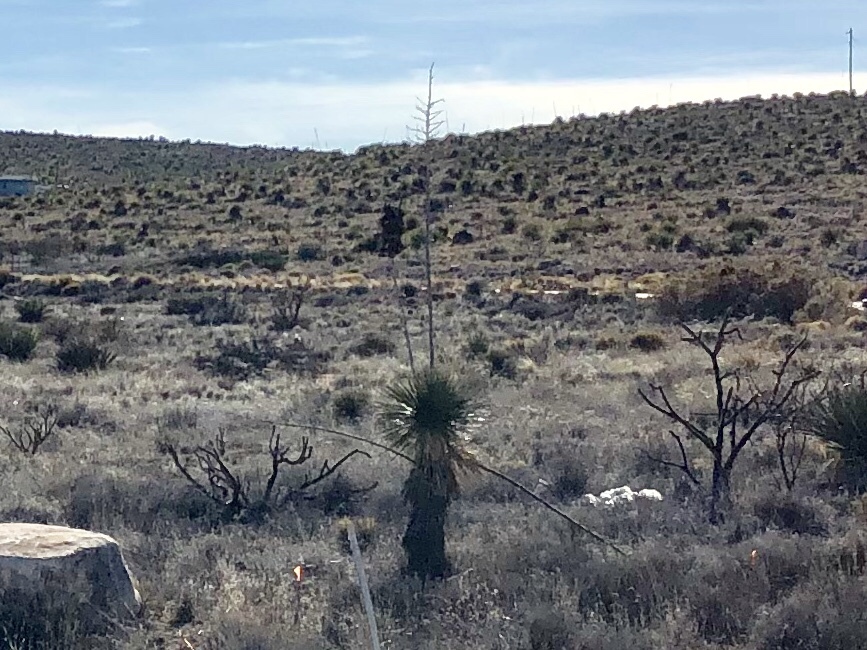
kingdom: Plantae
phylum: Tracheophyta
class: Liliopsida
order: Asparagales
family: Asparagaceae
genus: Yucca
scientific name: Yucca elata
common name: Palmella
